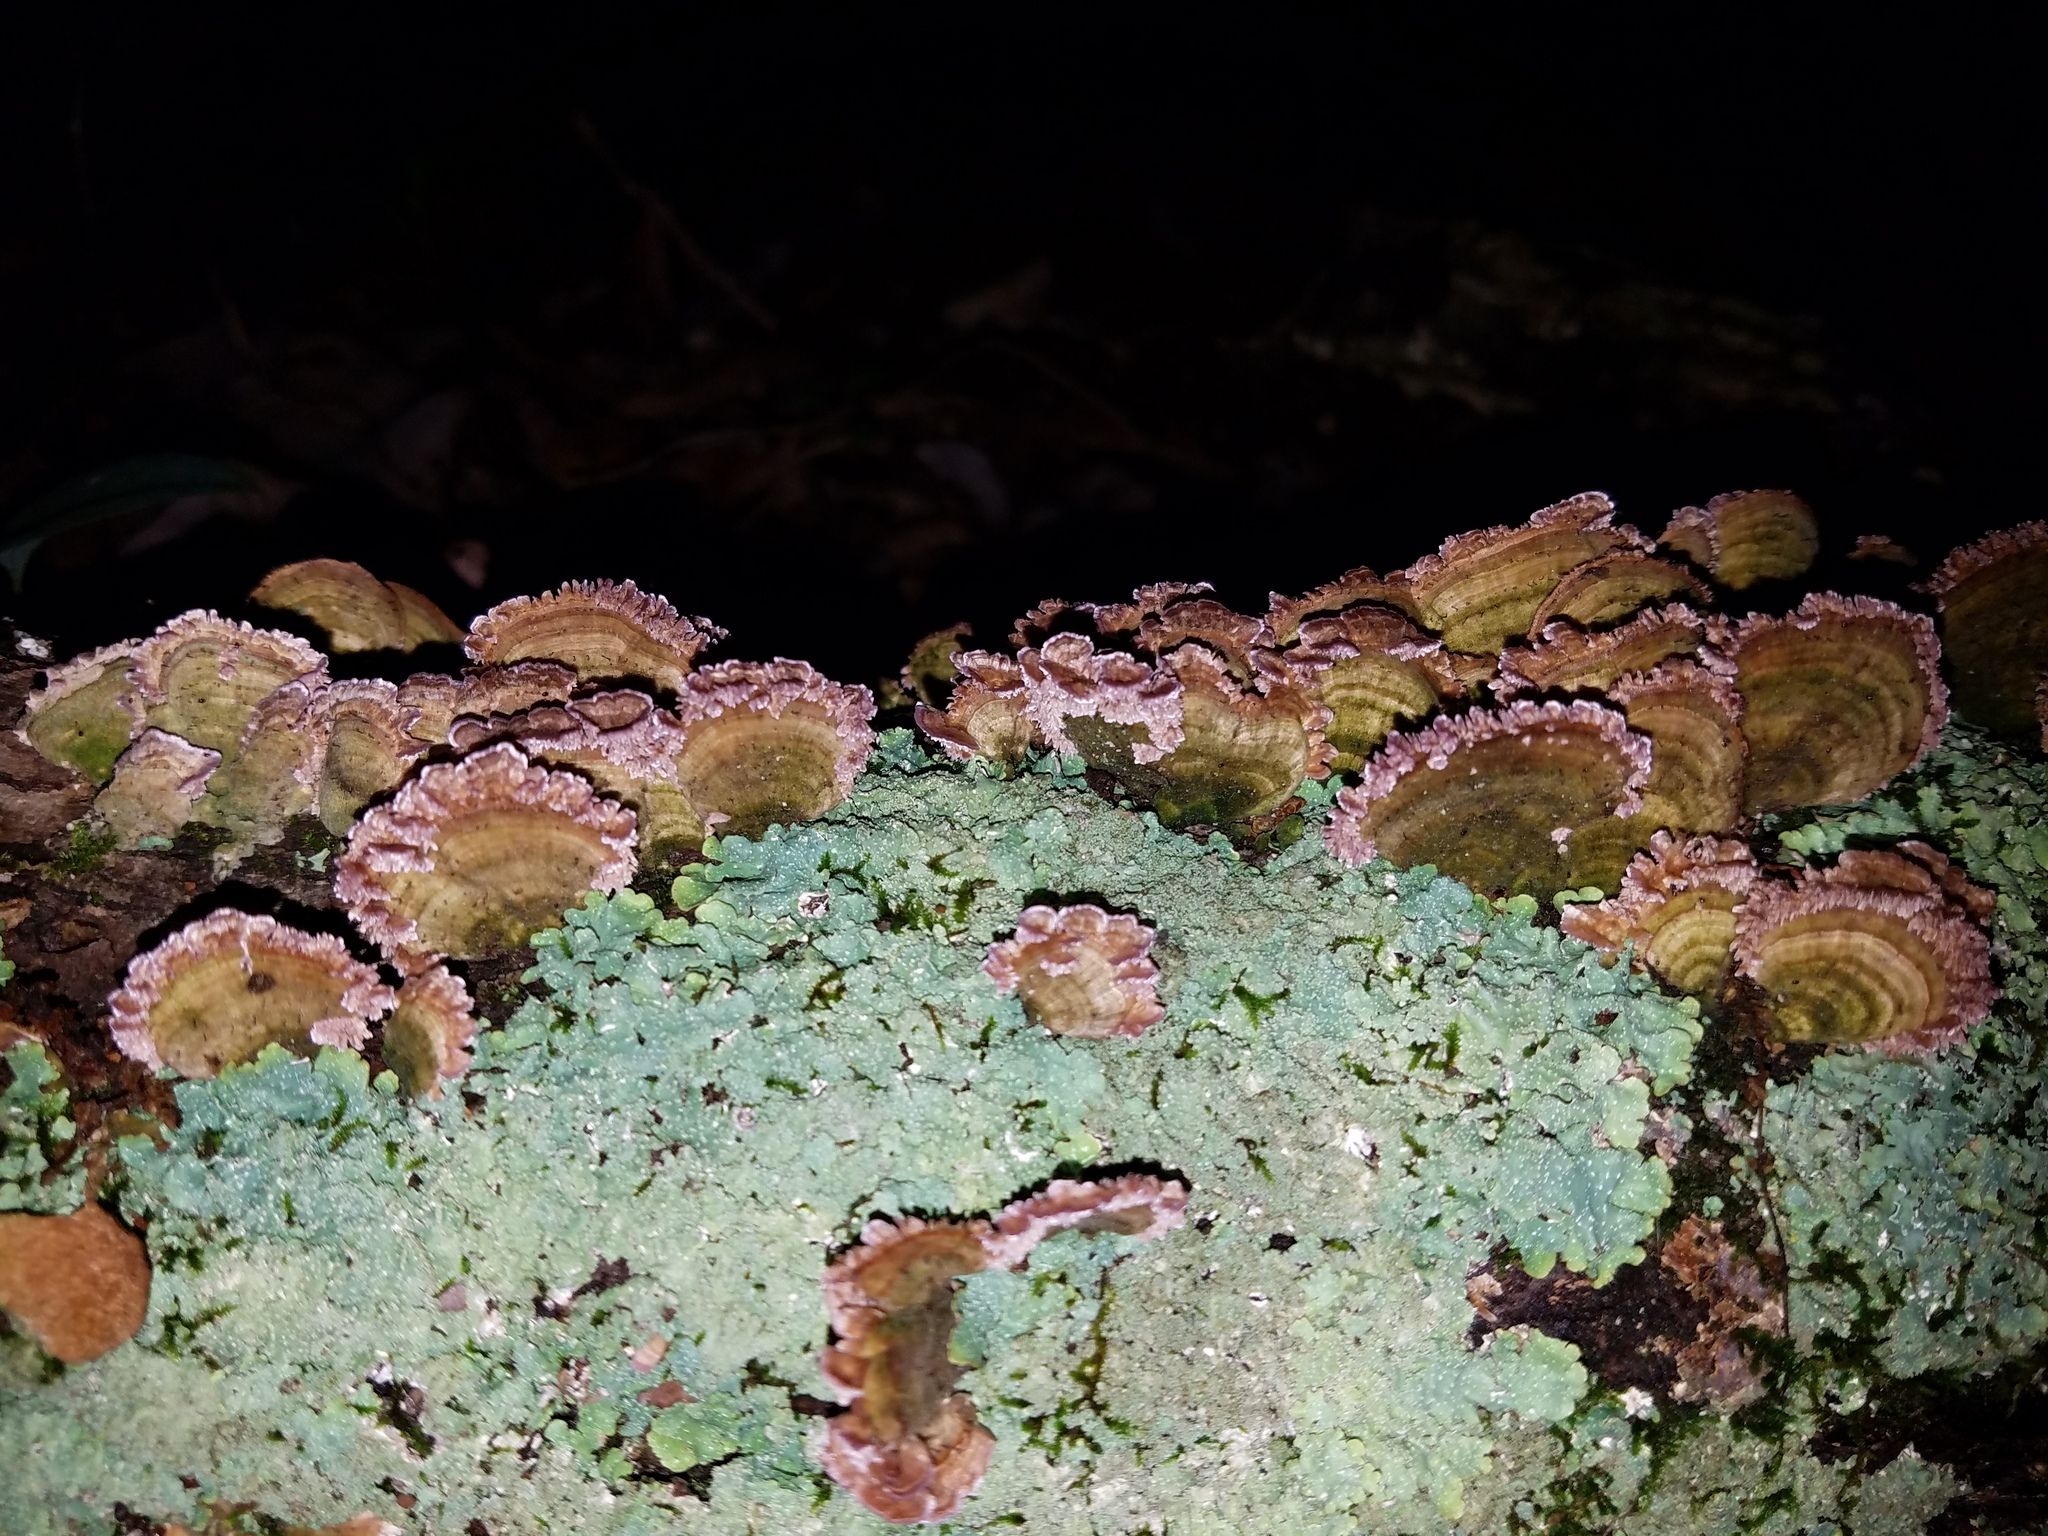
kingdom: Fungi
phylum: Basidiomycota
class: Agaricomycetes
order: Hymenochaetales
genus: Trichaptum
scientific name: Trichaptum biforme
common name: Violet-toothed polypore
